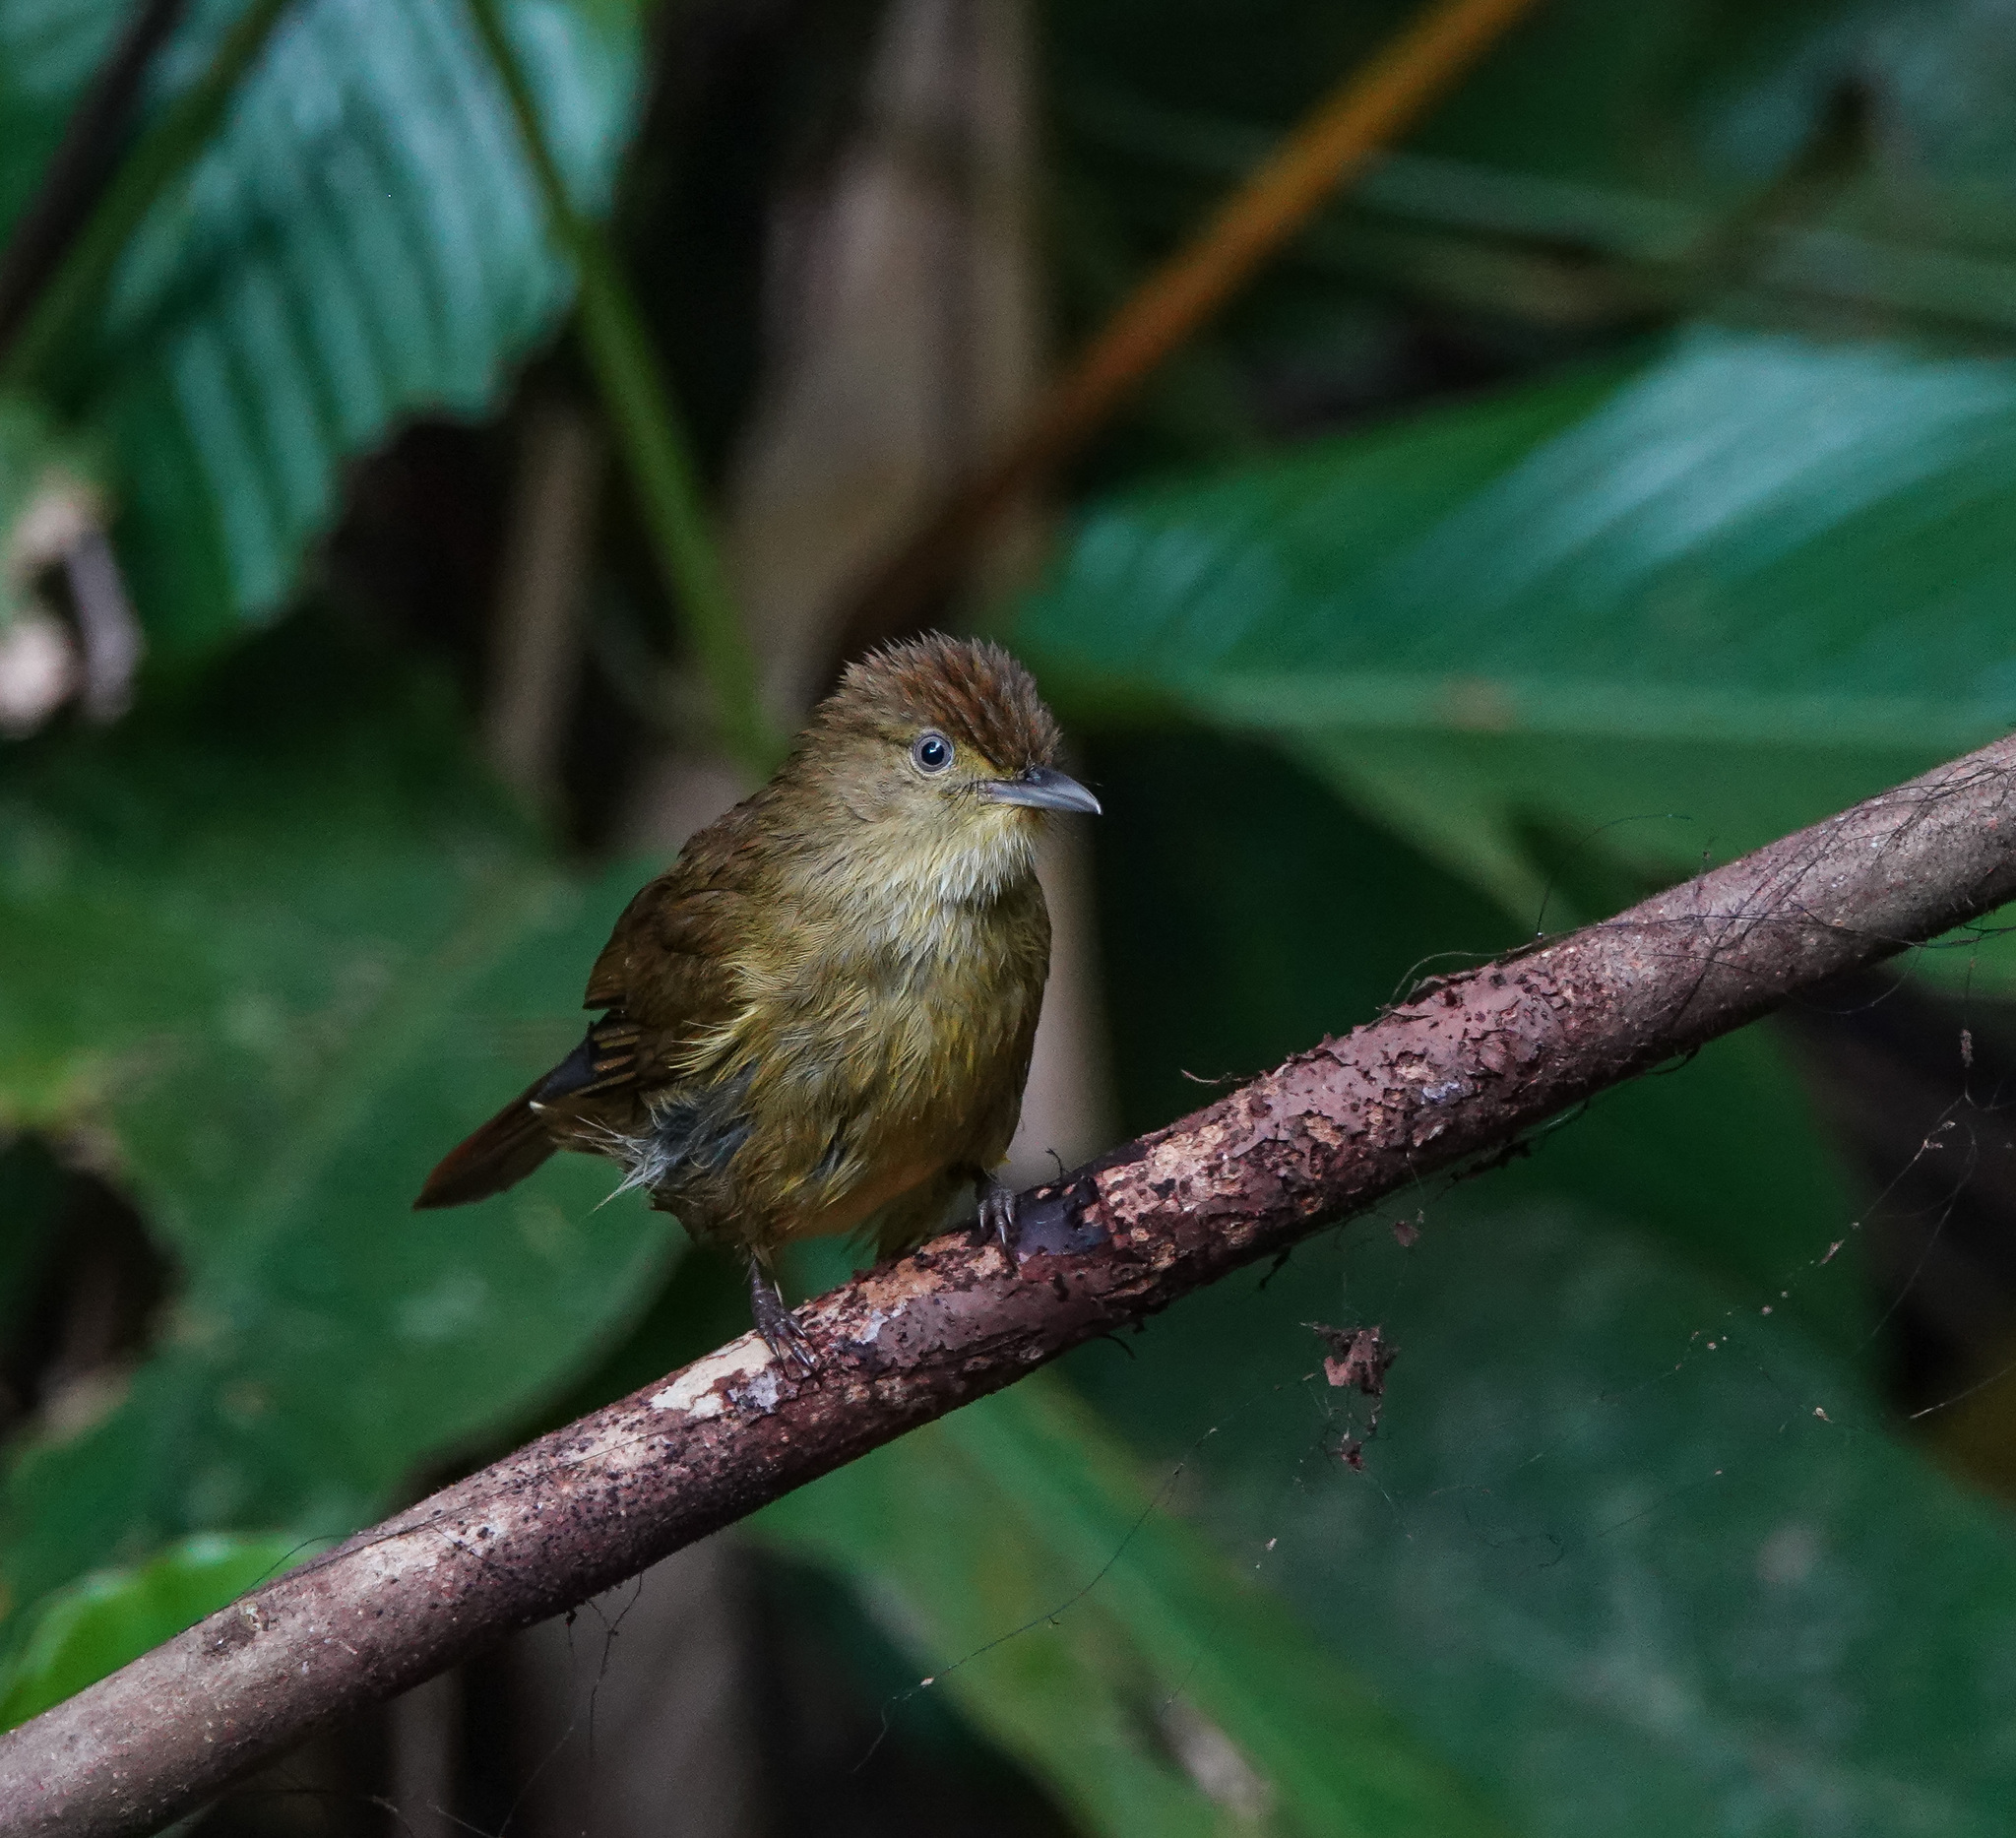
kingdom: Animalia
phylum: Chordata
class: Aves
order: Passeriformes
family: Pycnonotidae
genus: Iole
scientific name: Iole virescens
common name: Olive bulbul
